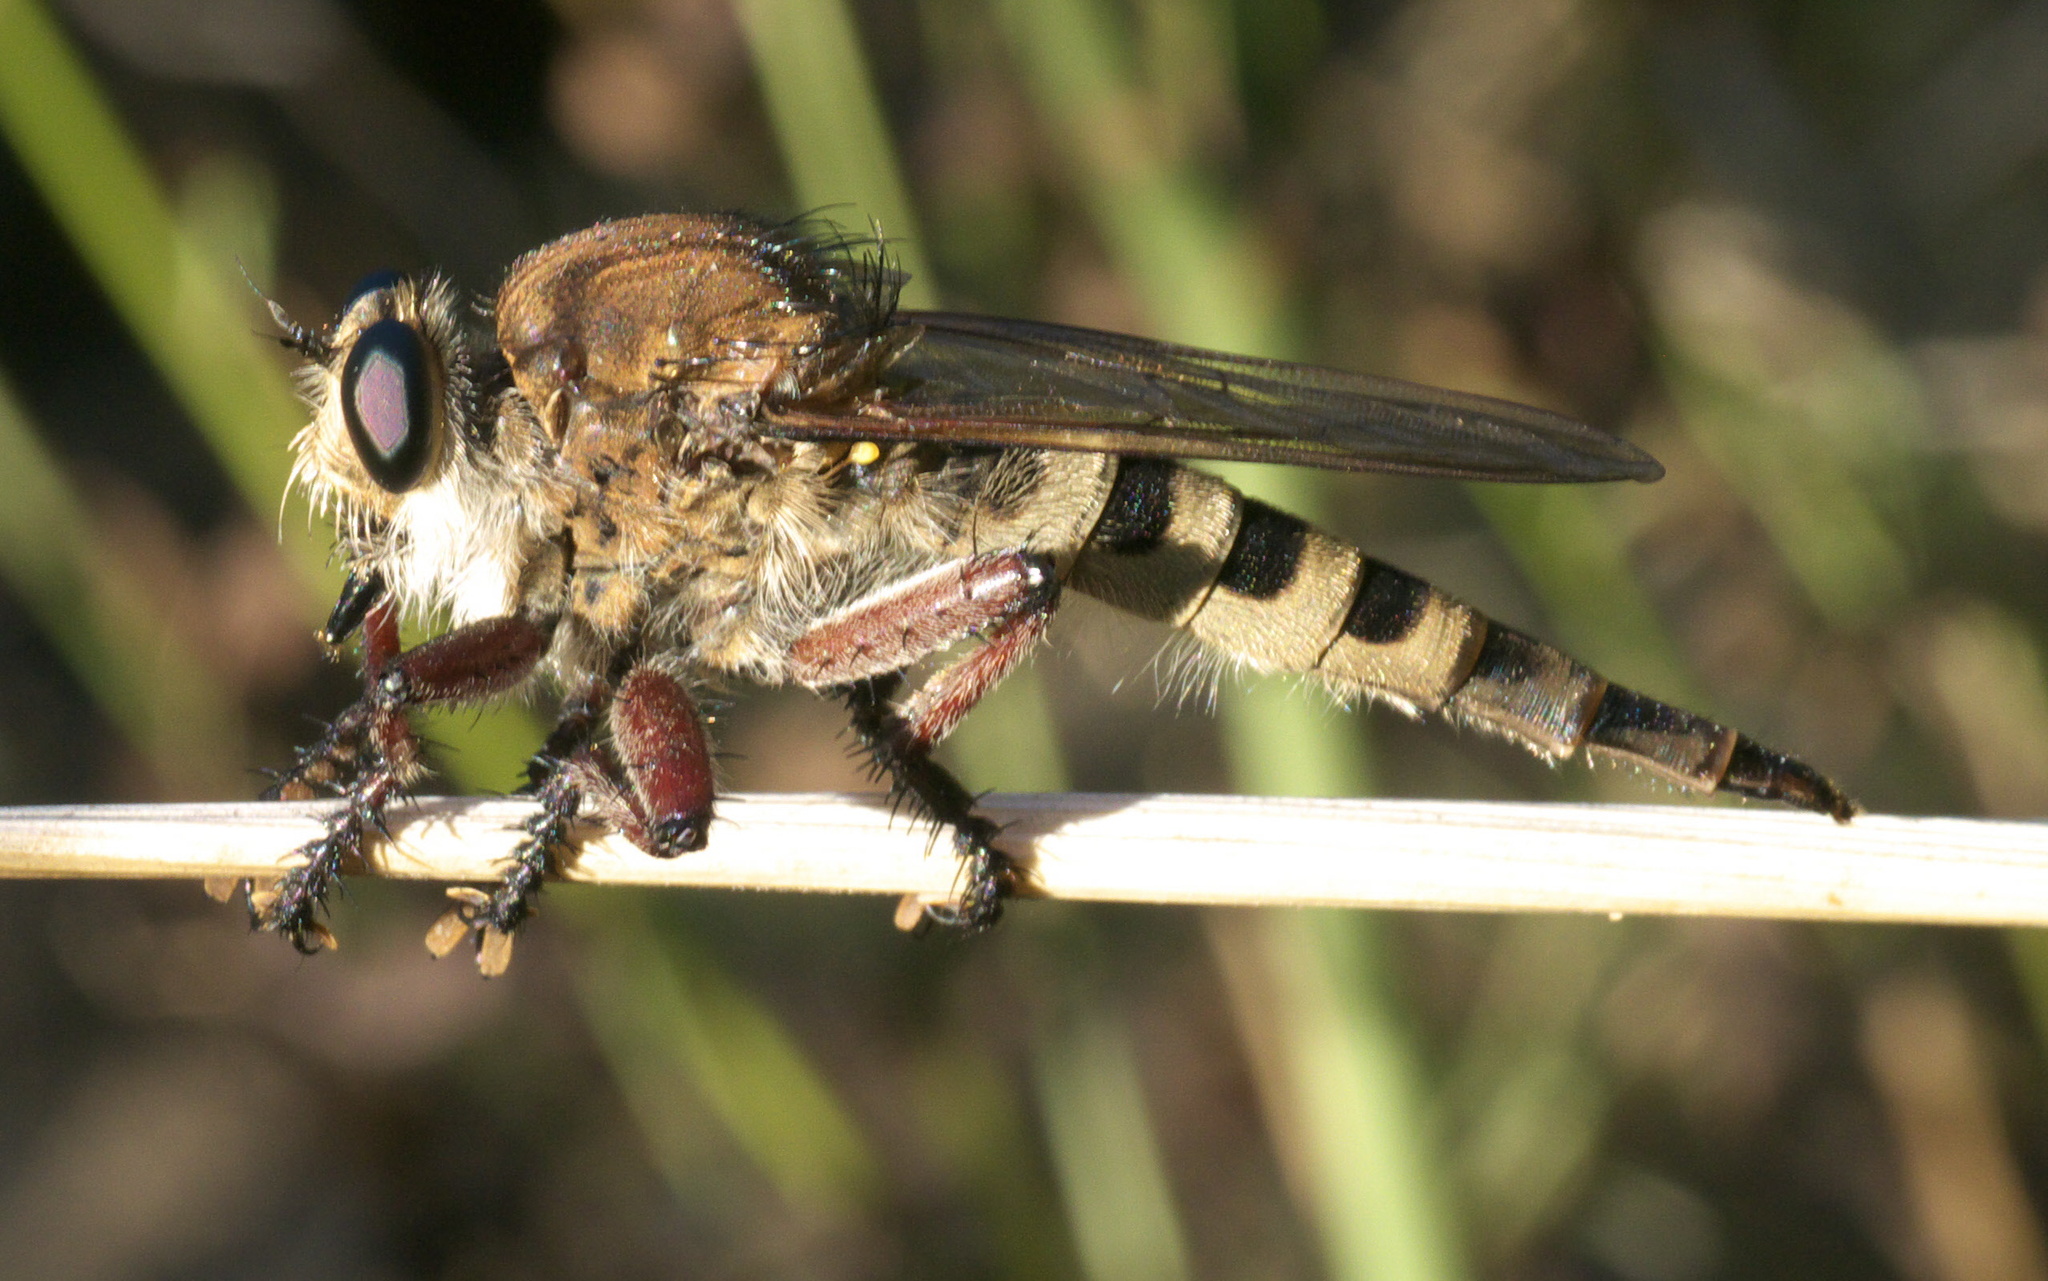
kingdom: Animalia
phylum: Arthropoda
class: Insecta
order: Diptera
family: Asilidae
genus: Promachus
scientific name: Promachus hinei
